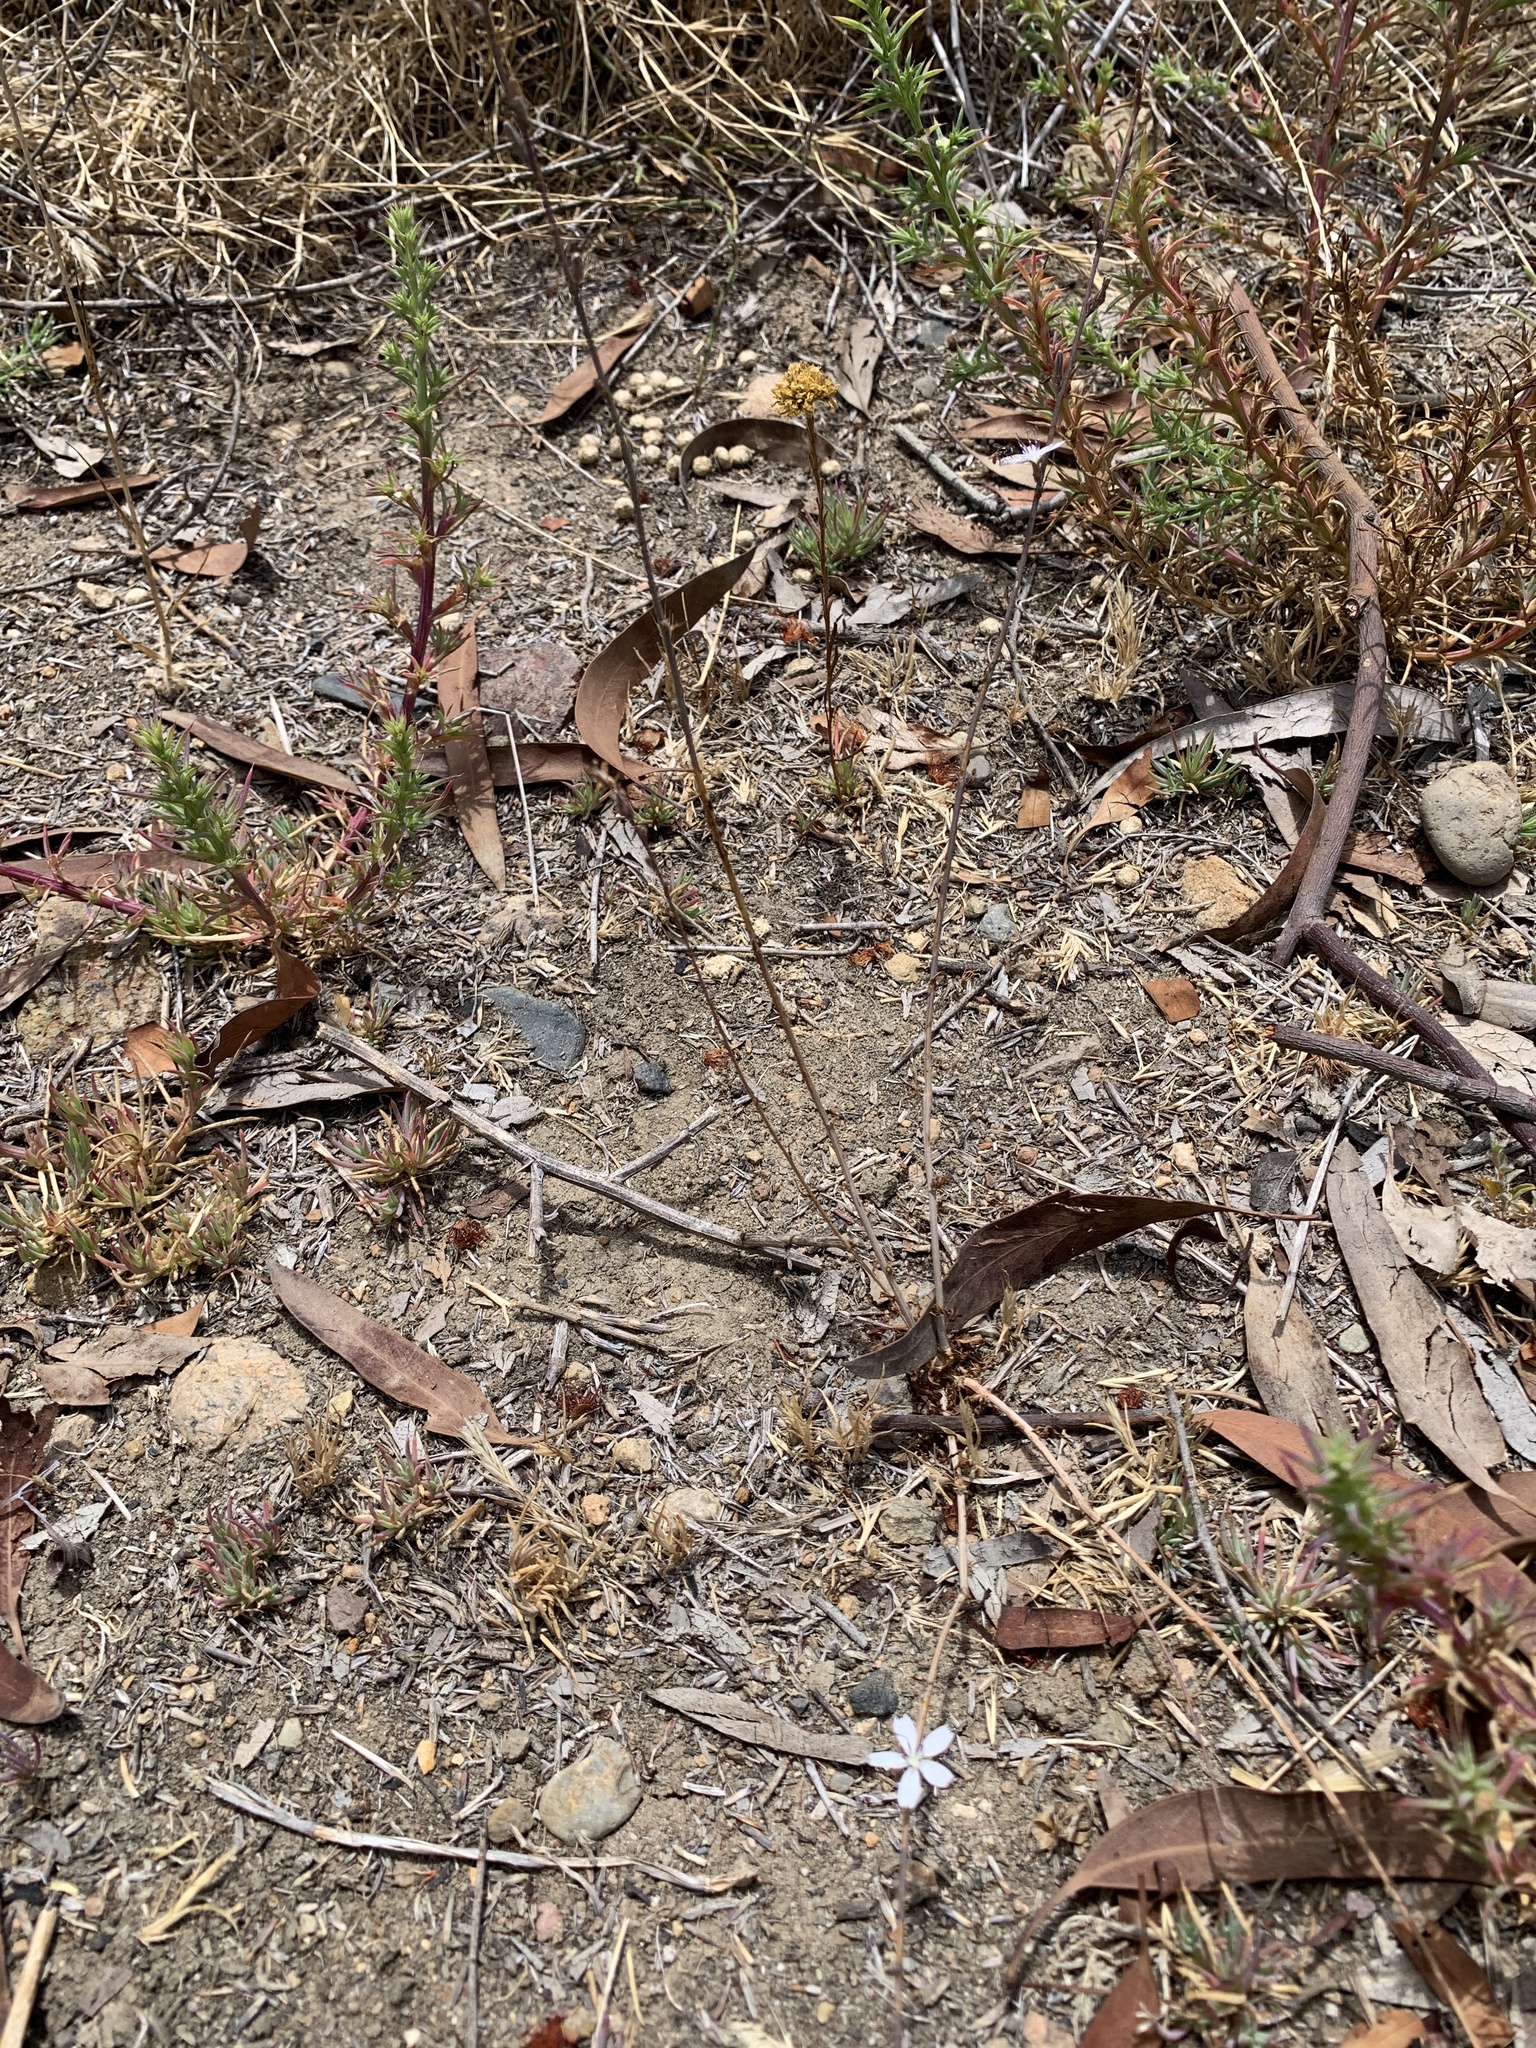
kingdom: Plantae
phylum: Tracheophyta
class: Magnoliopsida
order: Asterales
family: Asteraceae
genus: Stephanomeria
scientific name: Stephanomeria virgata
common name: Virgate wirelettuce
